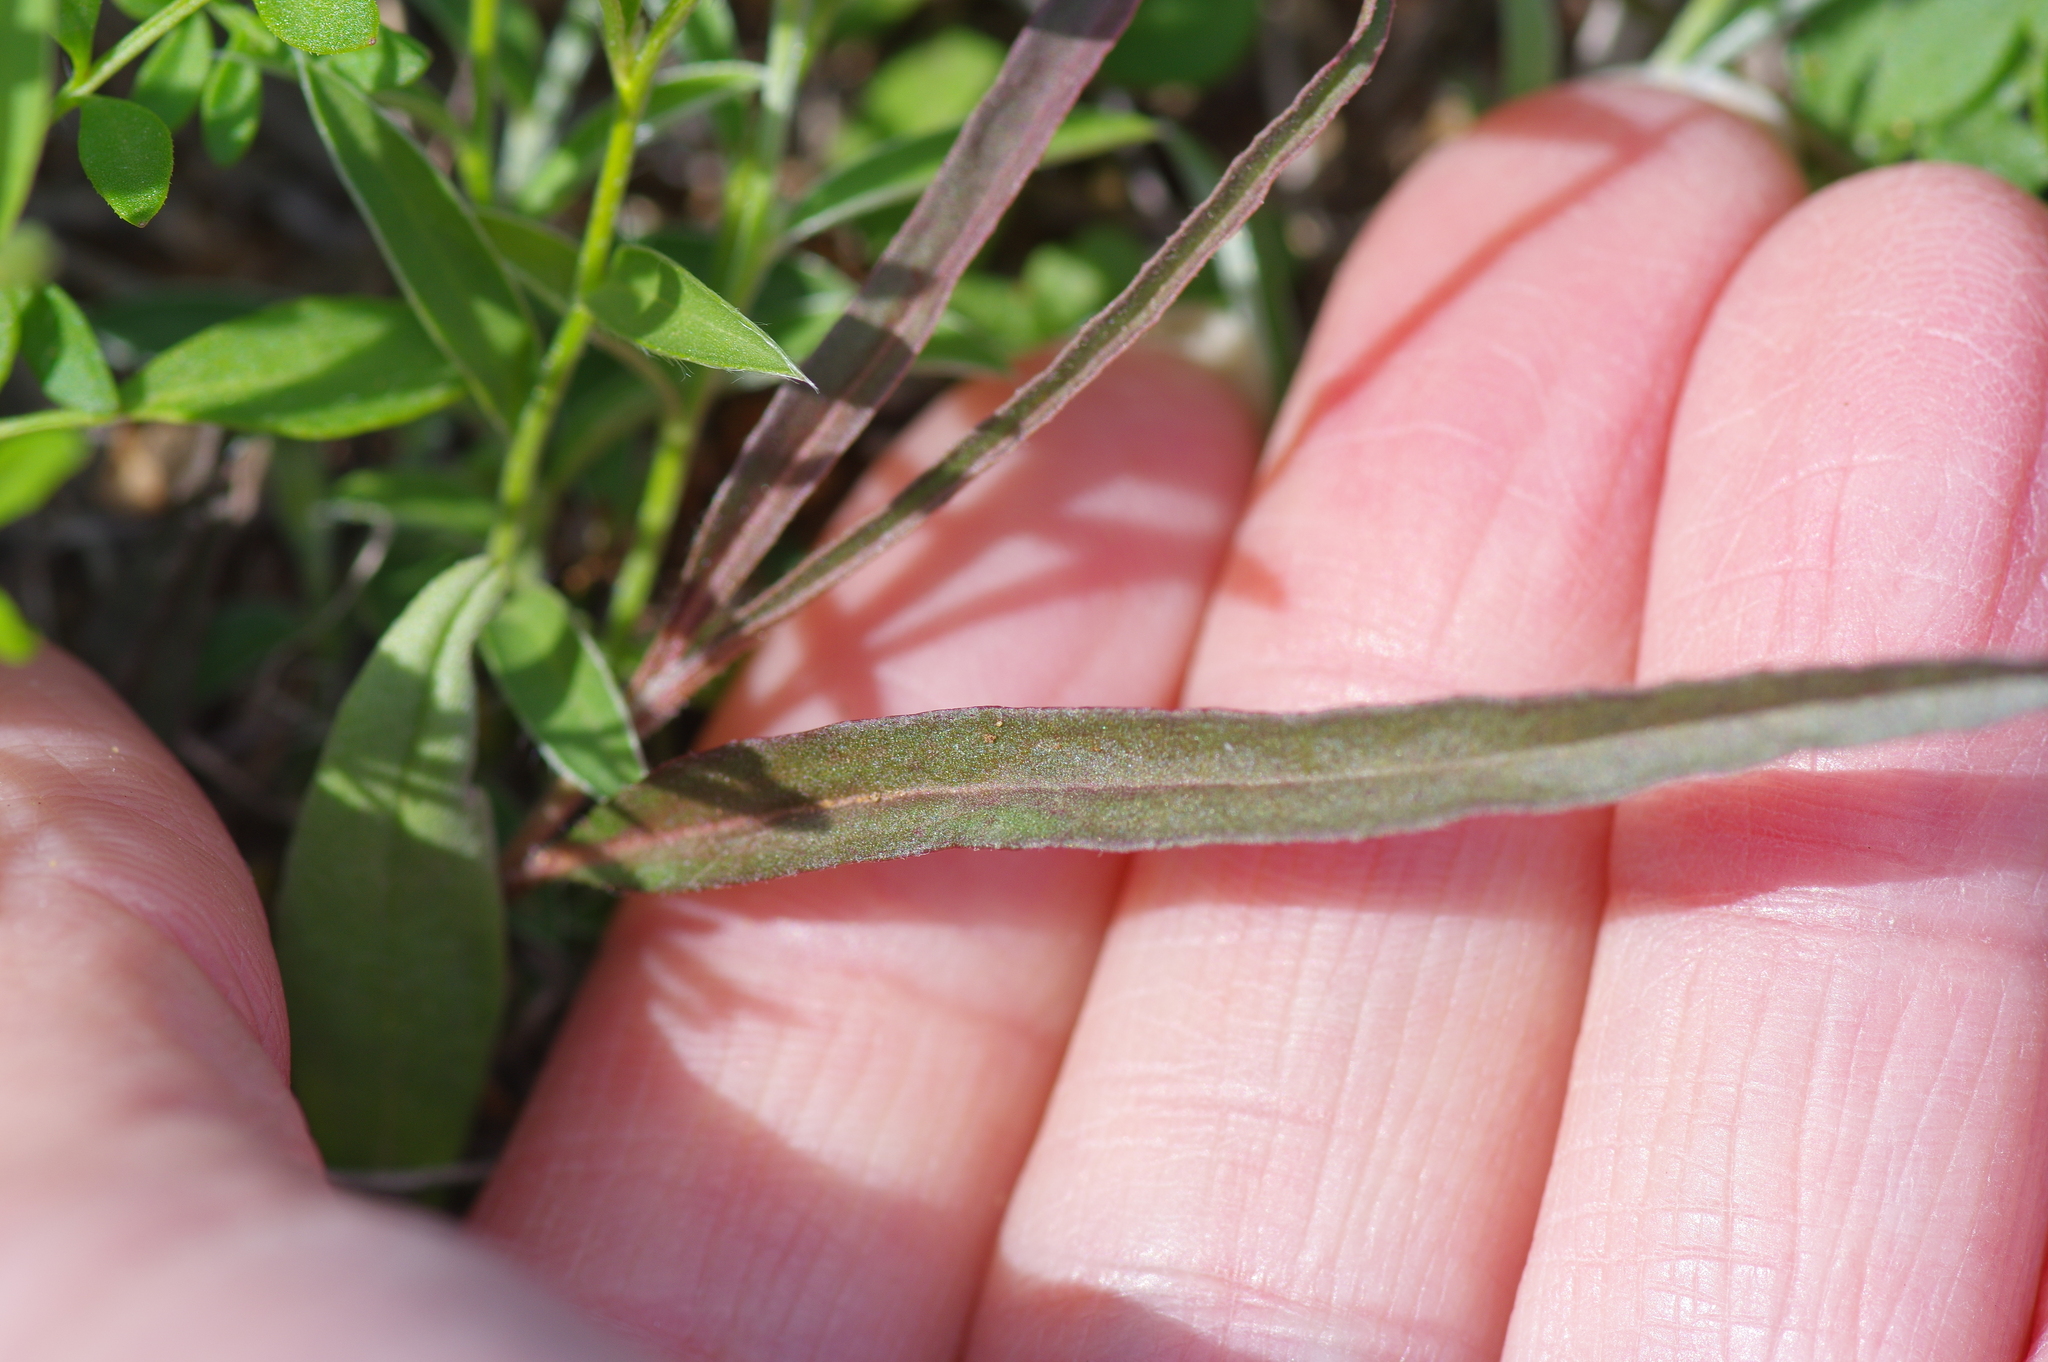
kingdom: Plantae
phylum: Tracheophyta
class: Magnoliopsida
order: Piperales
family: Aristolochiaceae
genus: Aristolochia
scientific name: Aristolochia erecta
